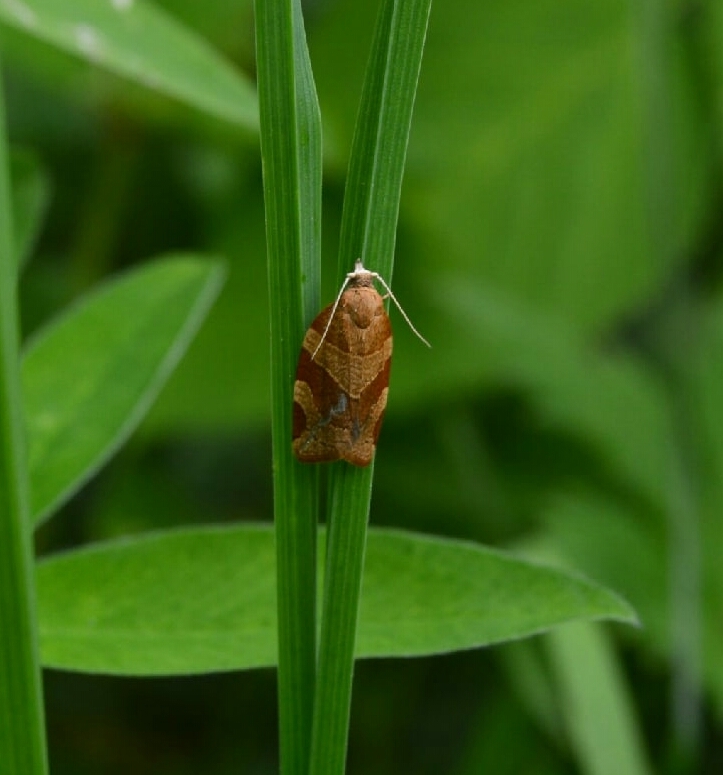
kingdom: Animalia
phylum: Arthropoda
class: Insecta
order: Lepidoptera
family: Tortricidae
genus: Pandemis
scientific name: Pandemis cinnamomeana
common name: White-faced twist
